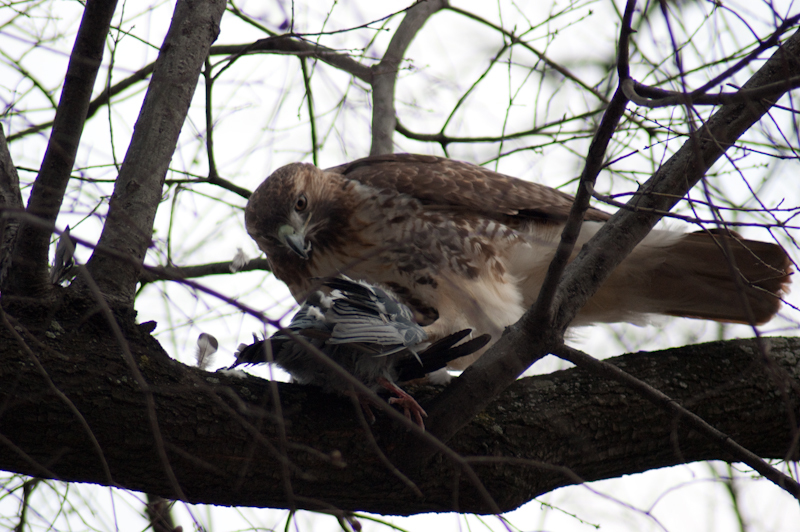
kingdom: Animalia
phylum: Chordata
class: Aves
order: Accipitriformes
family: Accipitridae
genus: Buteo
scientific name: Buteo jamaicensis
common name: Red-tailed hawk
